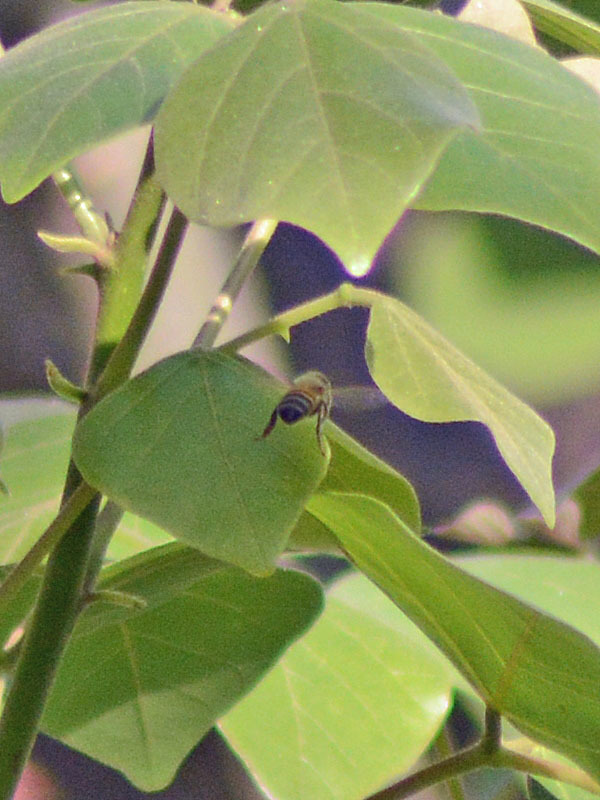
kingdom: Animalia
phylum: Arthropoda
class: Insecta
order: Hymenoptera
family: Apidae
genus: Apis
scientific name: Apis mellifera
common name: Honey bee
